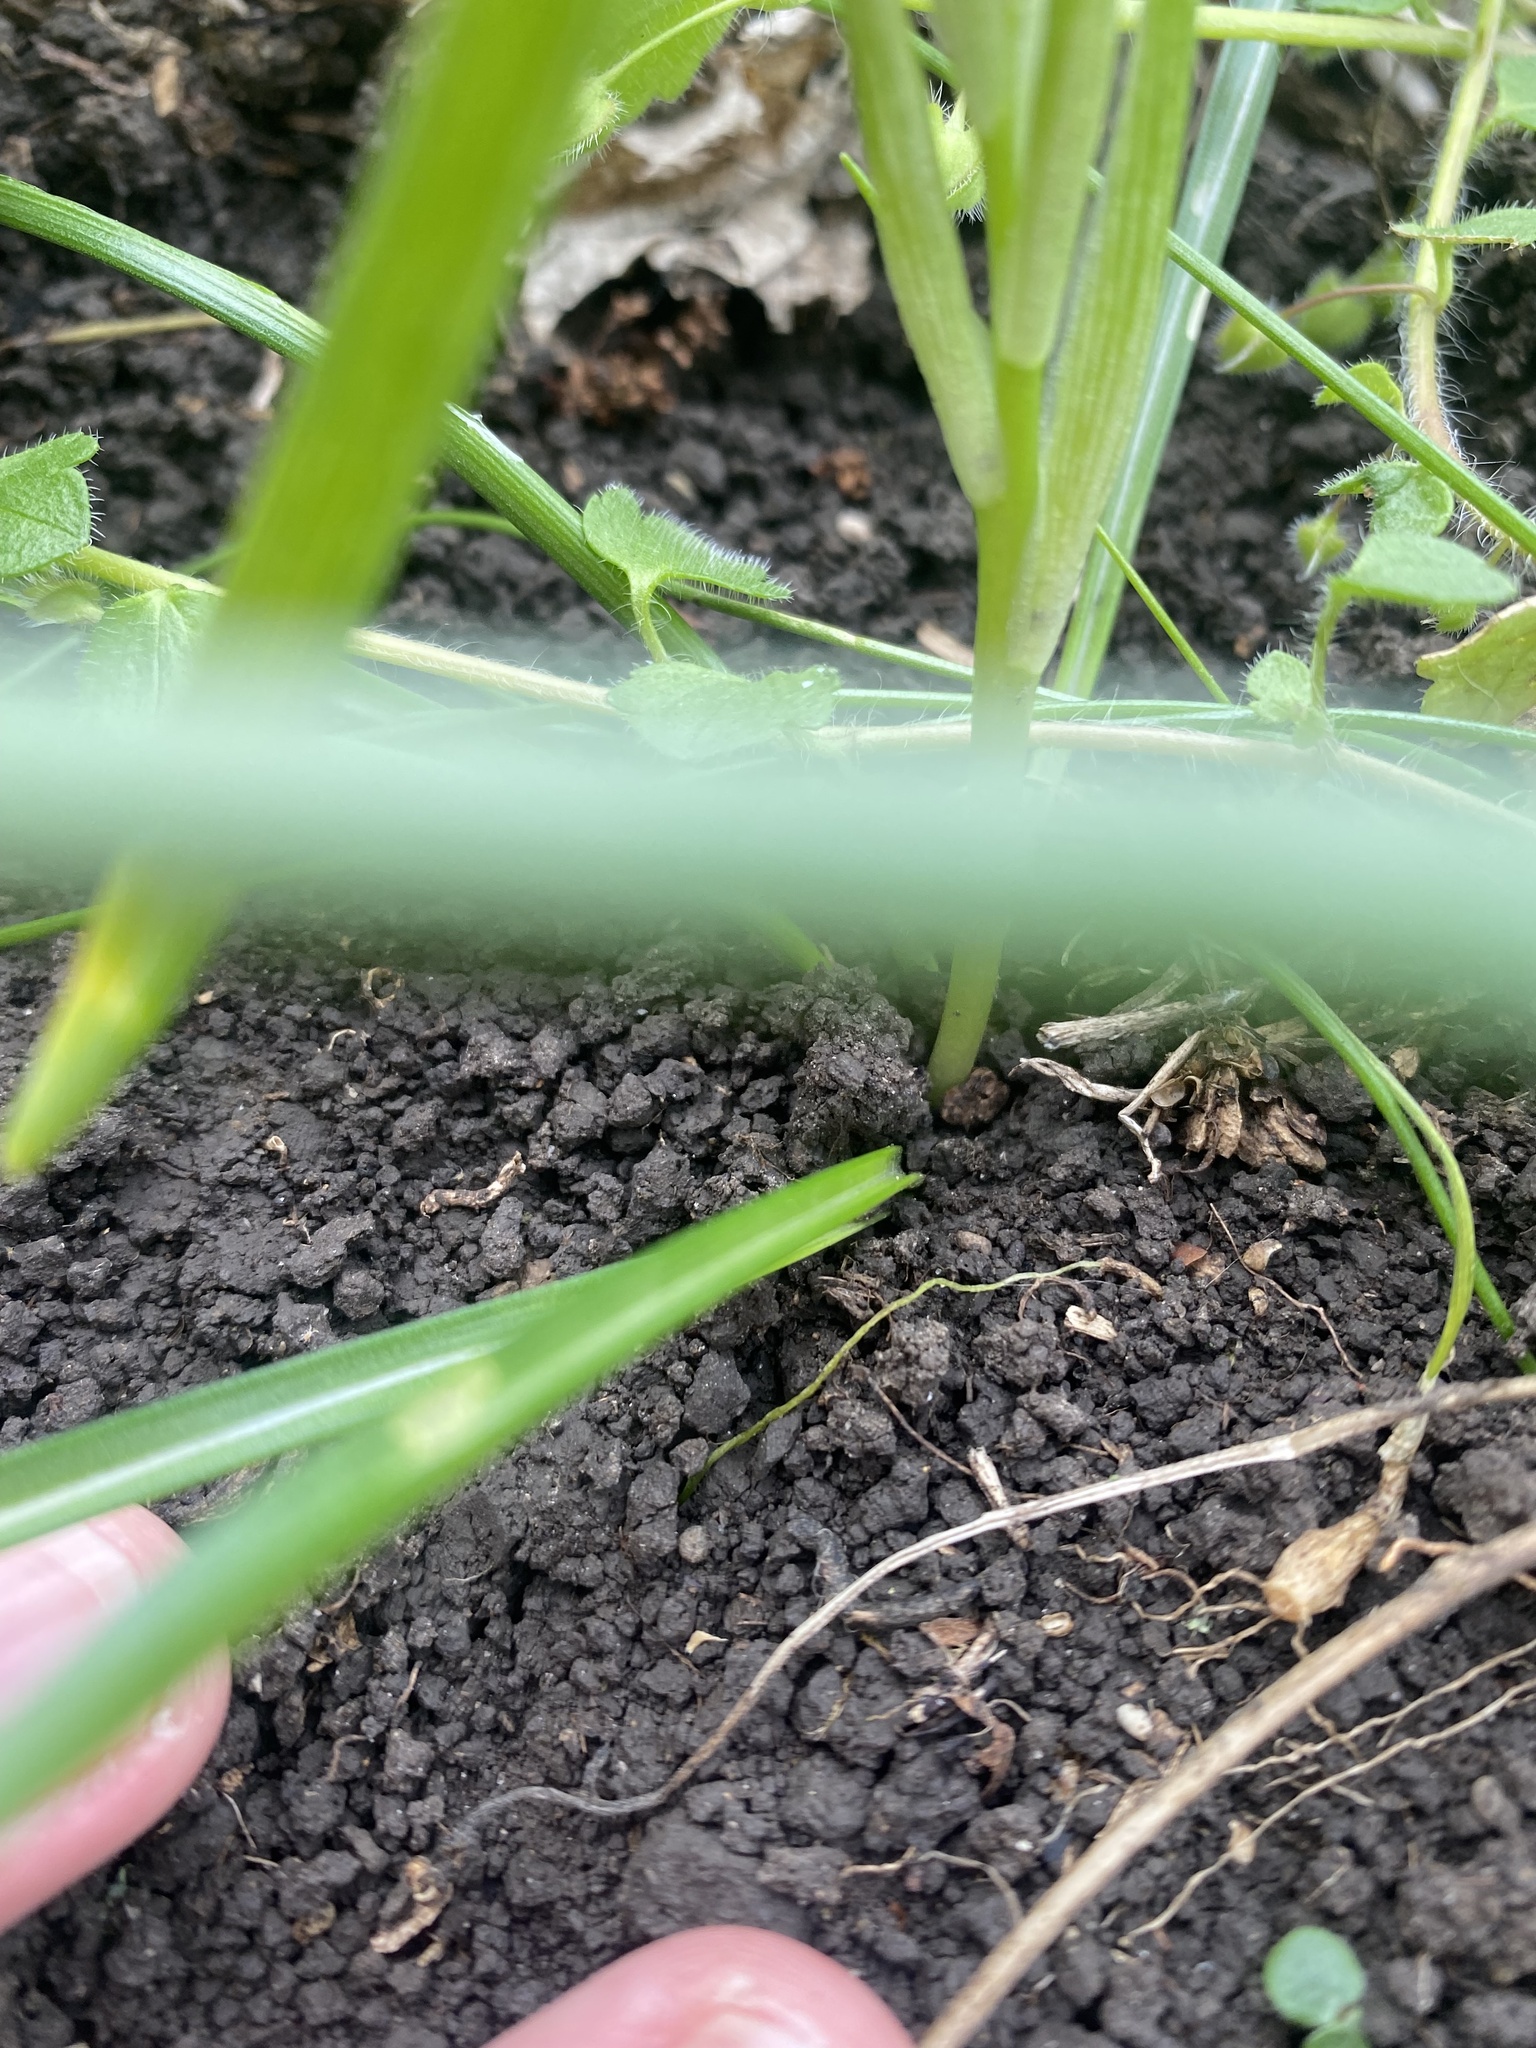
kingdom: Plantae
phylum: Tracheophyta
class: Liliopsida
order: Asparagales
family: Asparagaceae
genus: Ornithogalum
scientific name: Ornithogalum woronowii
